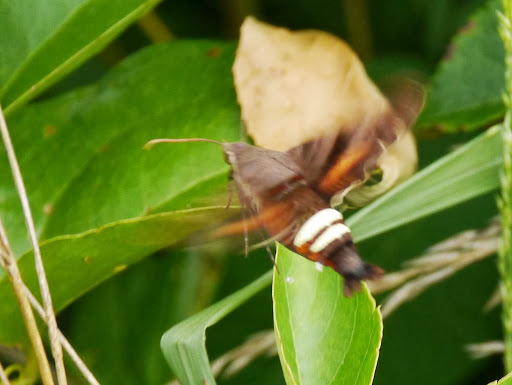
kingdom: Animalia
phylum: Arthropoda
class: Insecta
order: Lepidoptera
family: Sphingidae
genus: Amphion
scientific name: Amphion floridensis
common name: Nessus sphinx
